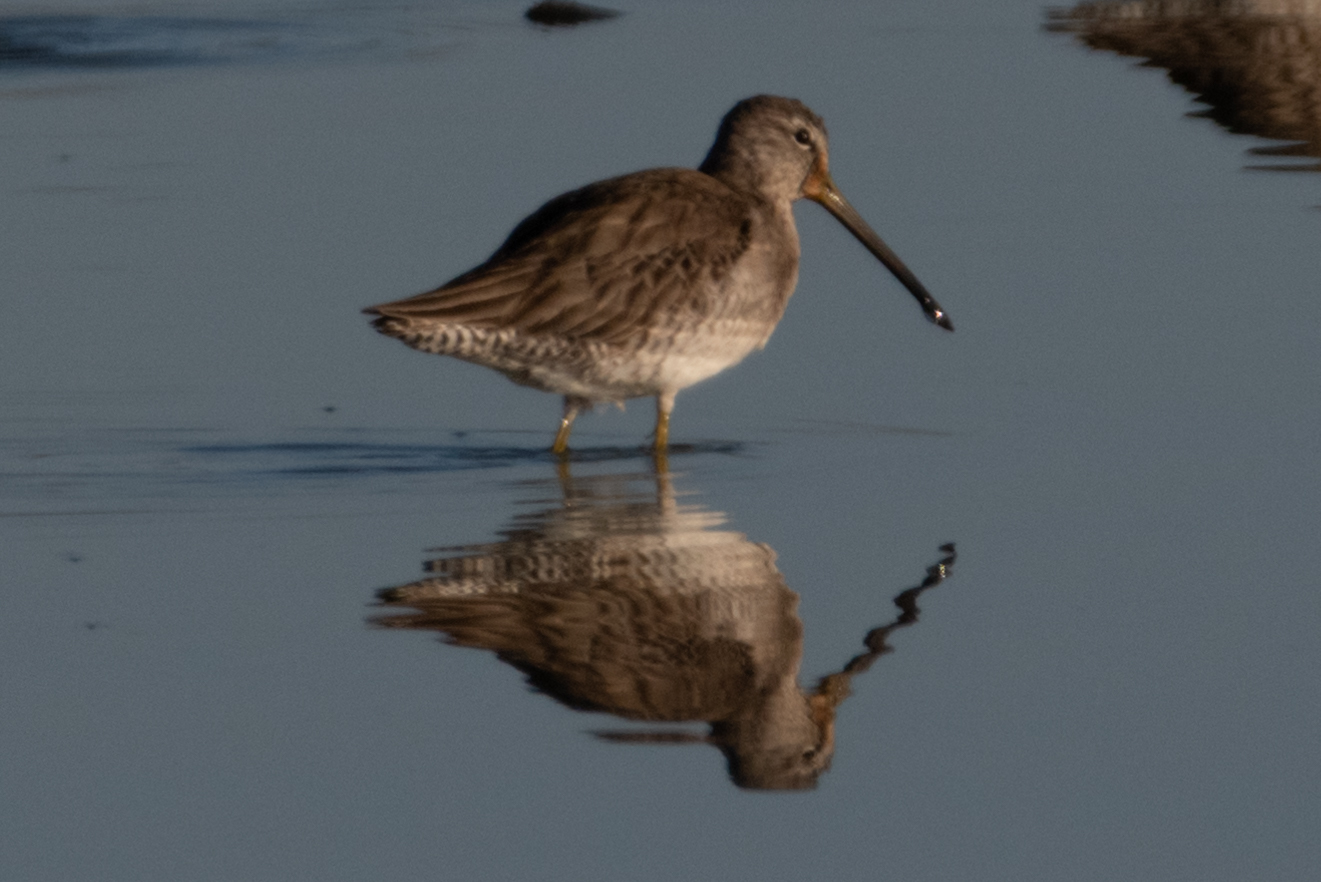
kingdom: Animalia
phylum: Chordata
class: Aves
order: Charadriiformes
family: Scolopacidae
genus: Limnodromus
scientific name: Limnodromus scolopaceus
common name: Long-billed dowitcher
